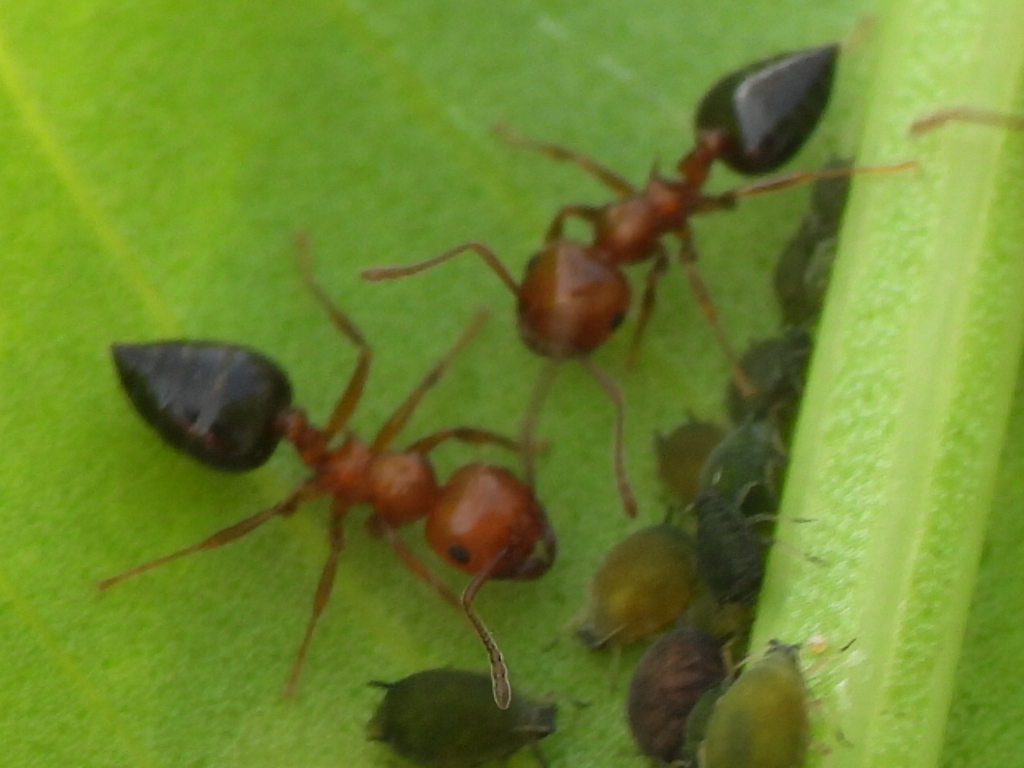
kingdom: Animalia
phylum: Arthropoda
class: Insecta
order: Hymenoptera
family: Formicidae
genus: Crematogaster
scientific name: Crematogaster laeviuscula
